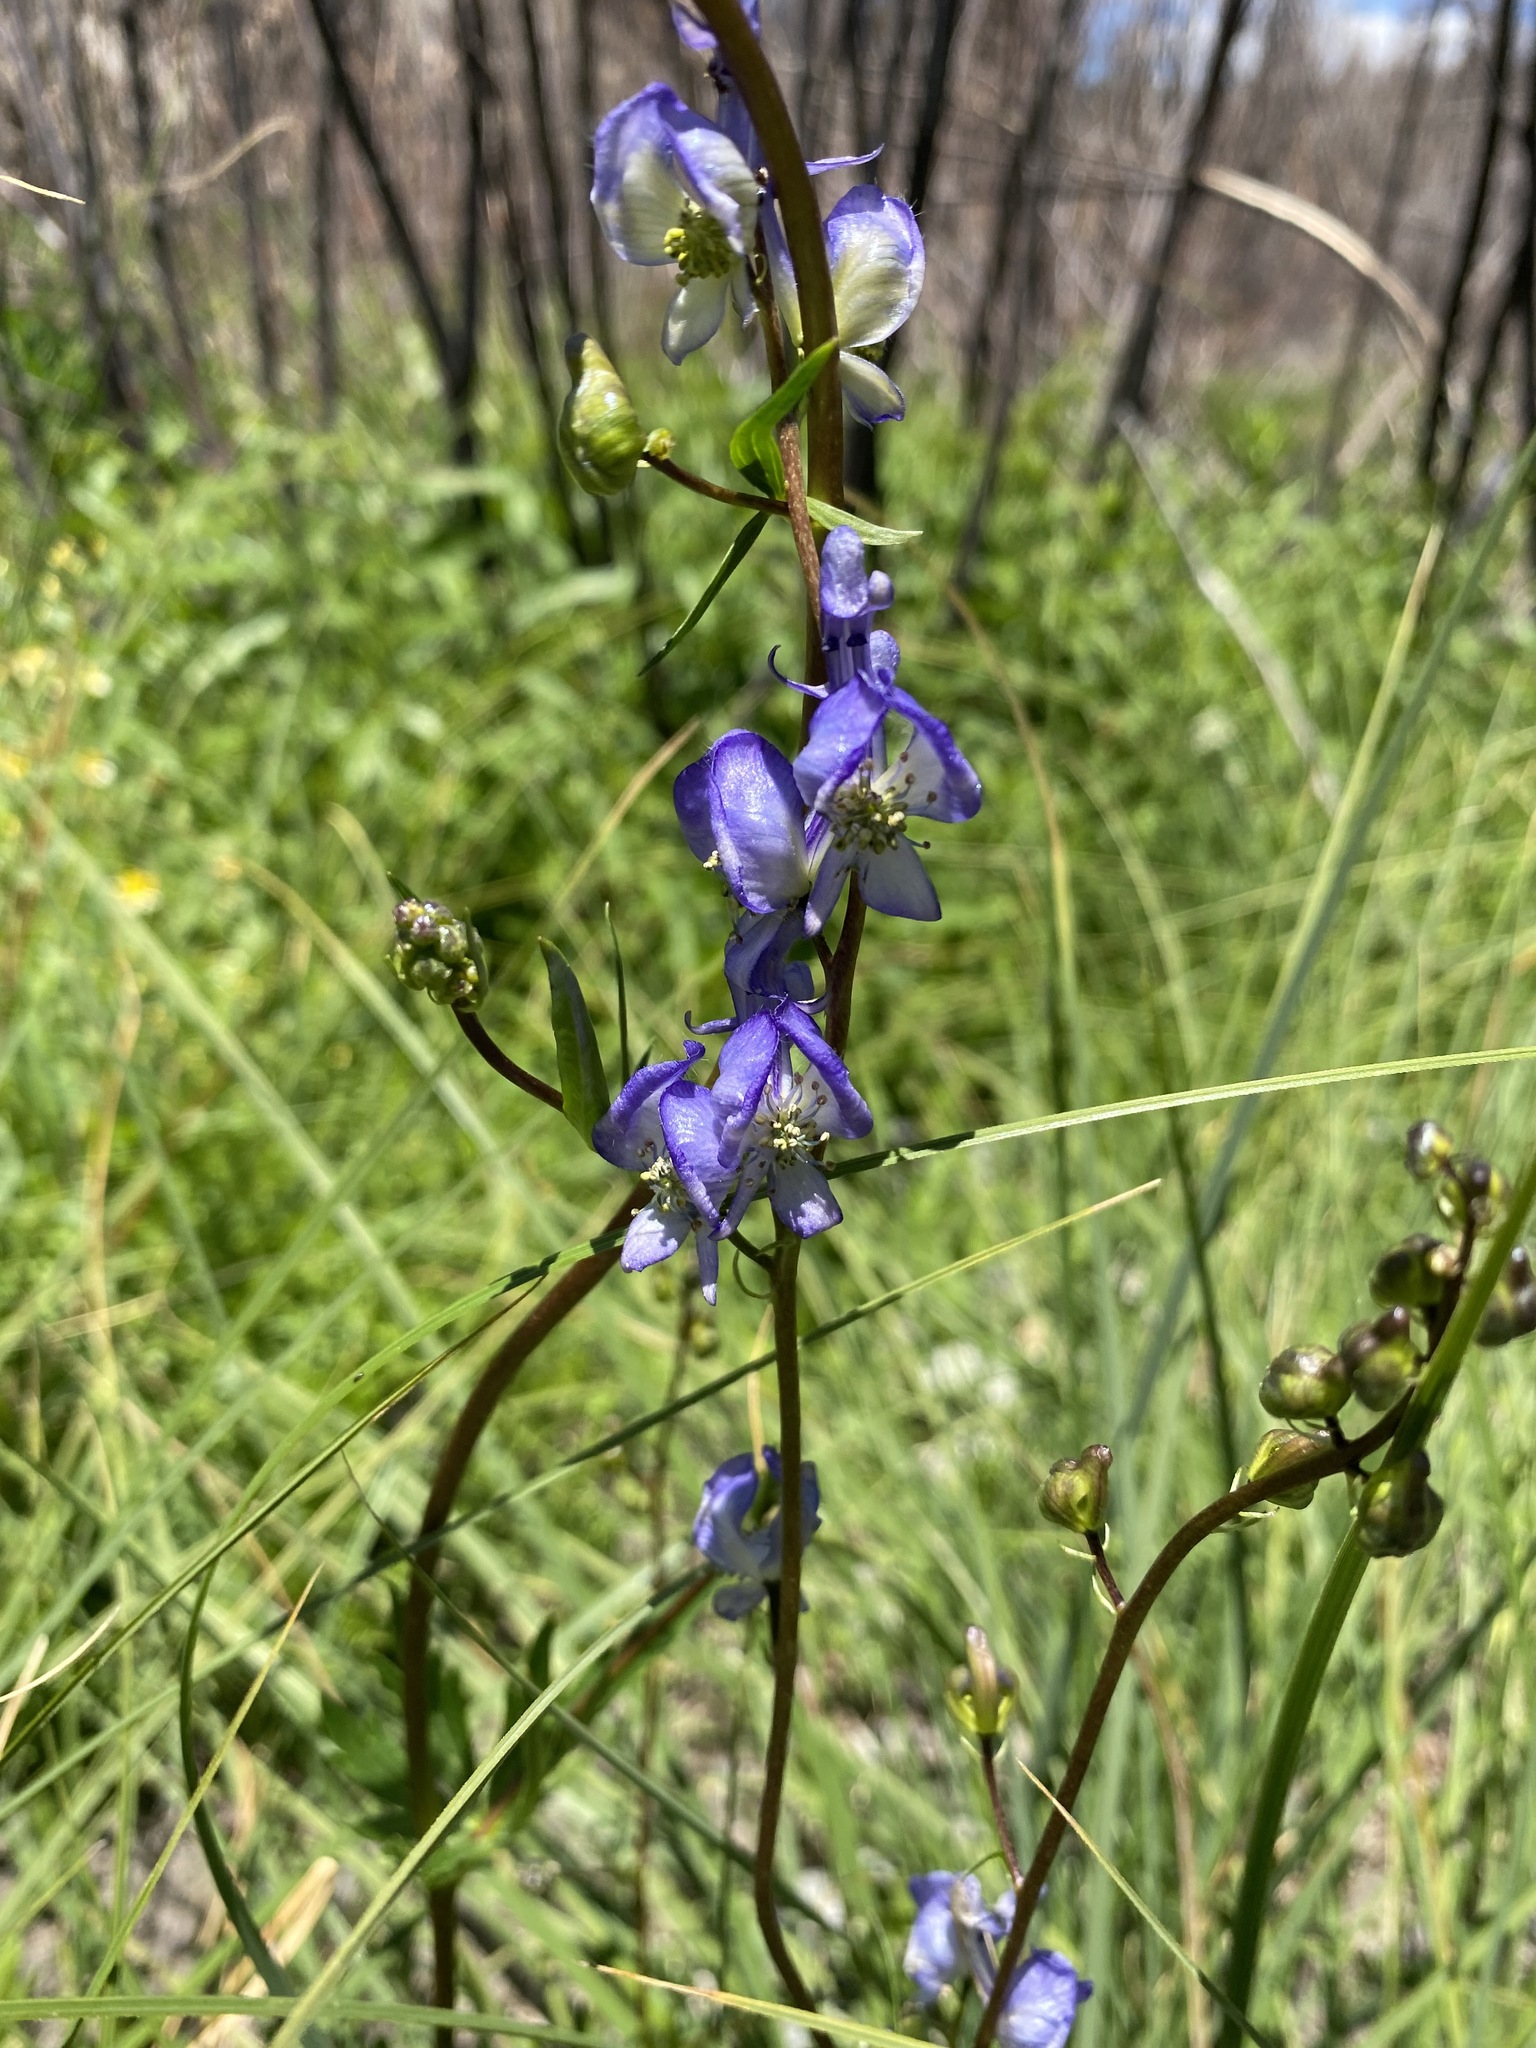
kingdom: Plantae
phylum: Tracheophyta
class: Magnoliopsida
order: Ranunculales
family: Ranunculaceae
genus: Aconitum
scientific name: Aconitum columbianum
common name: Columbia aconite
